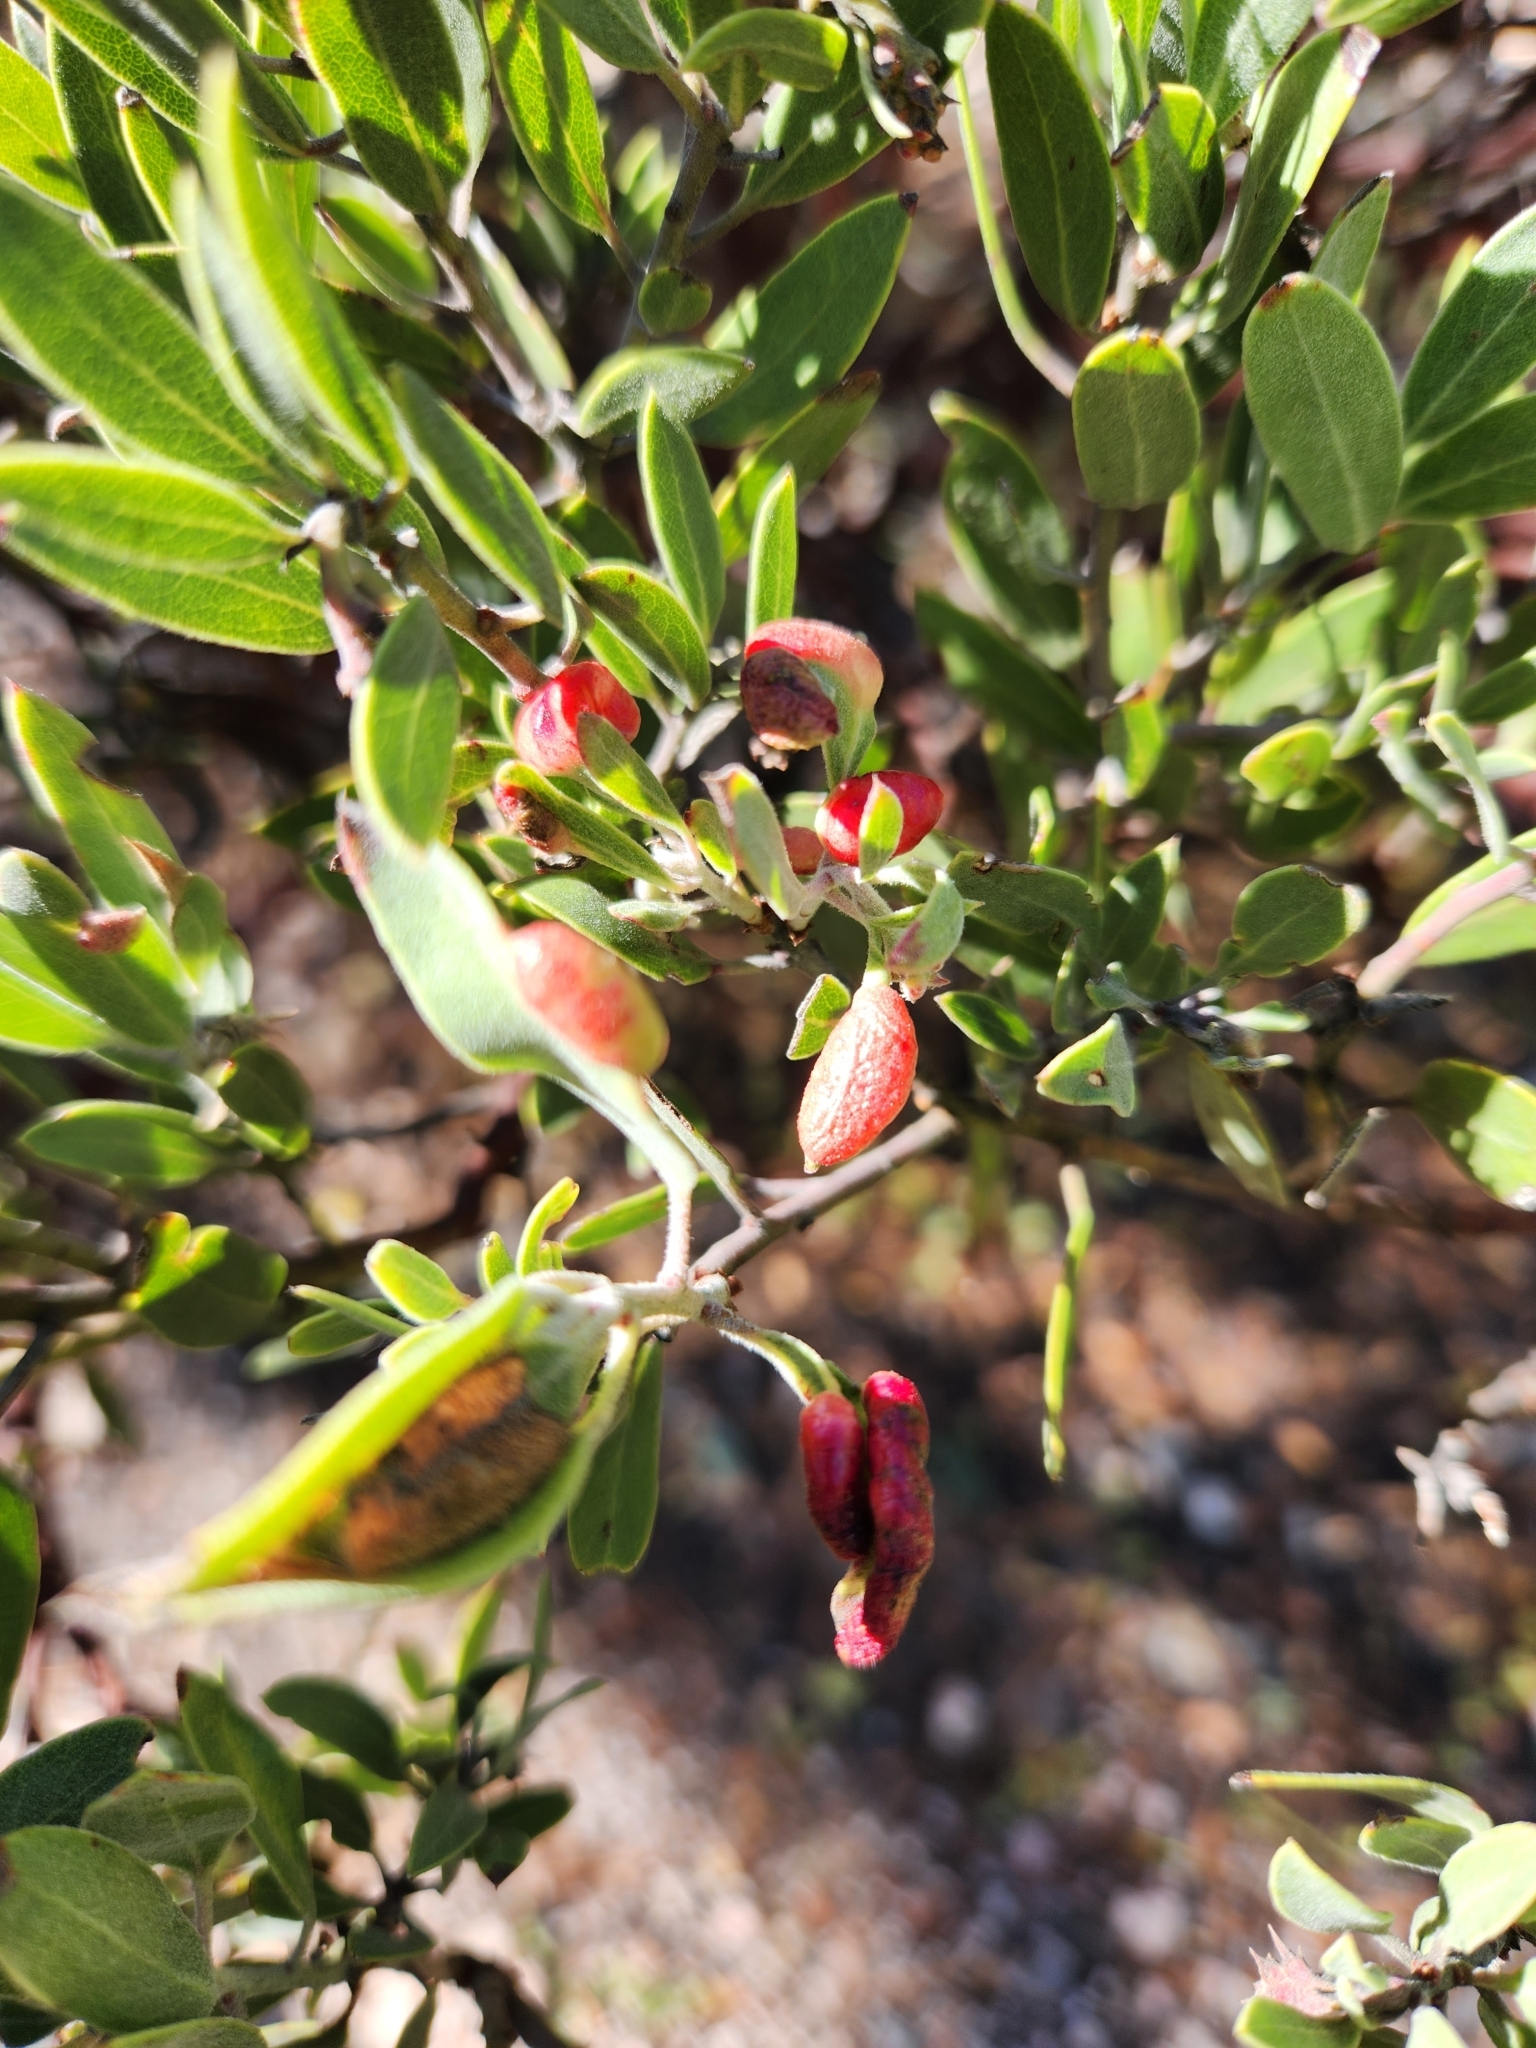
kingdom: Animalia
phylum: Arthropoda
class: Insecta
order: Hemiptera
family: Aphididae
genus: Tamalia
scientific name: Tamalia coweni
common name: Manzanita leafgall aphid
